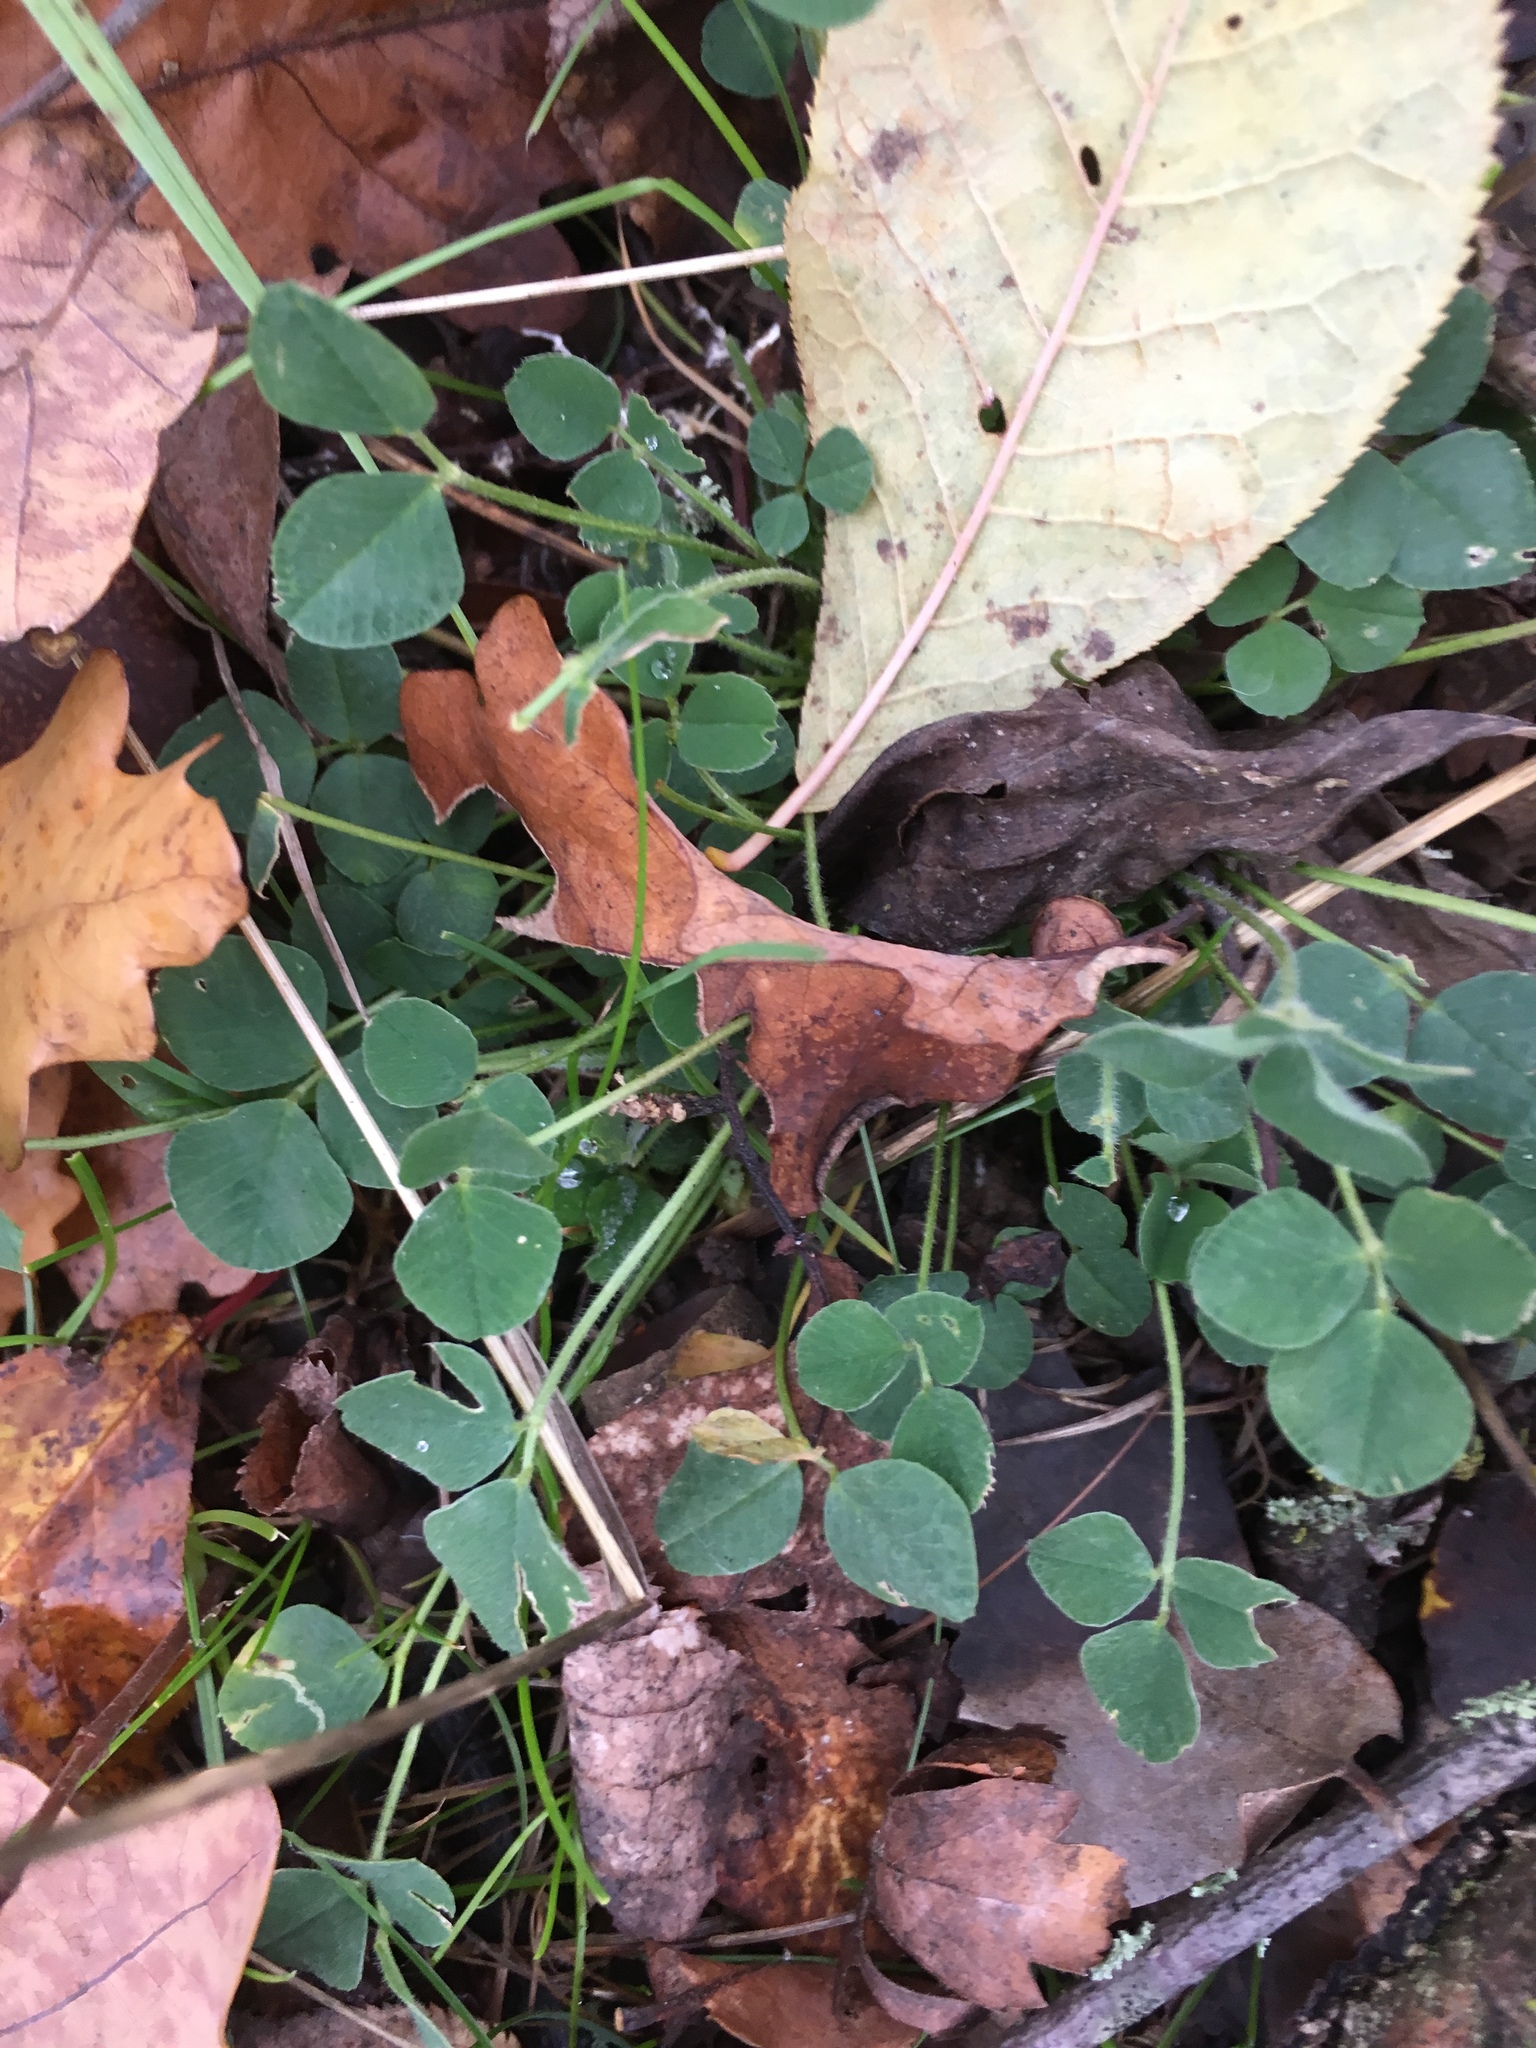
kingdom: Plantae
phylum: Tracheophyta
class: Magnoliopsida
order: Fabales
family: Fabaceae
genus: Trifolium
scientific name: Trifolium repens
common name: White clover
